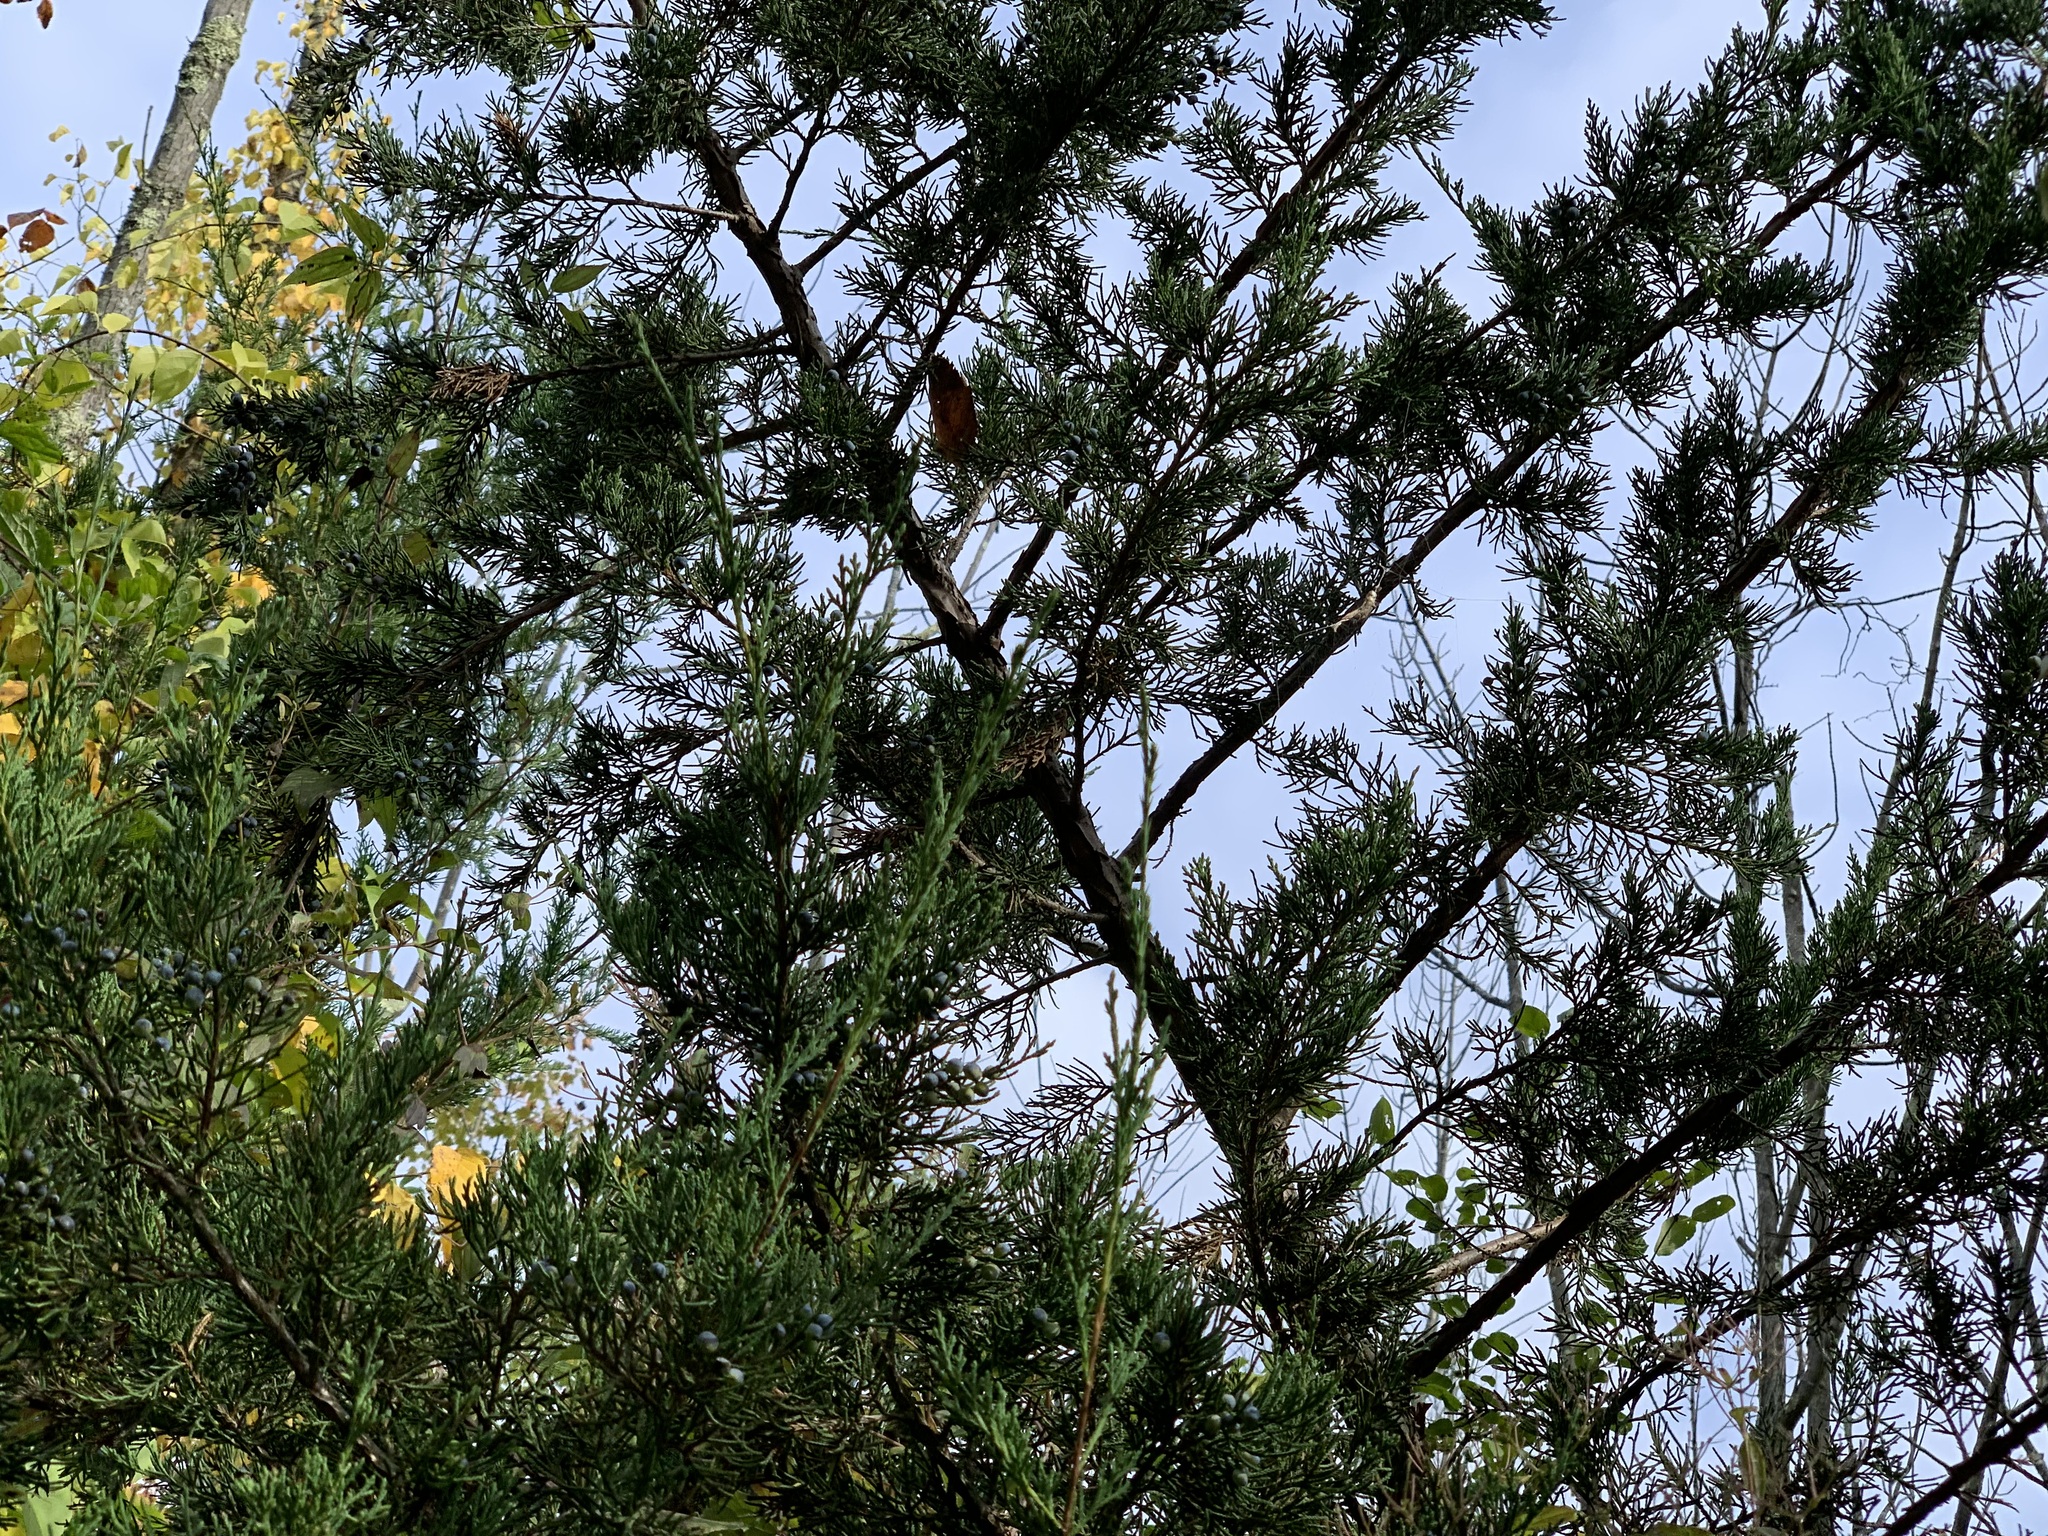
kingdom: Plantae
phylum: Tracheophyta
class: Pinopsida
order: Pinales
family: Cupressaceae
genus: Juniperus
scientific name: Juniperus virginiana
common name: Red juniper
